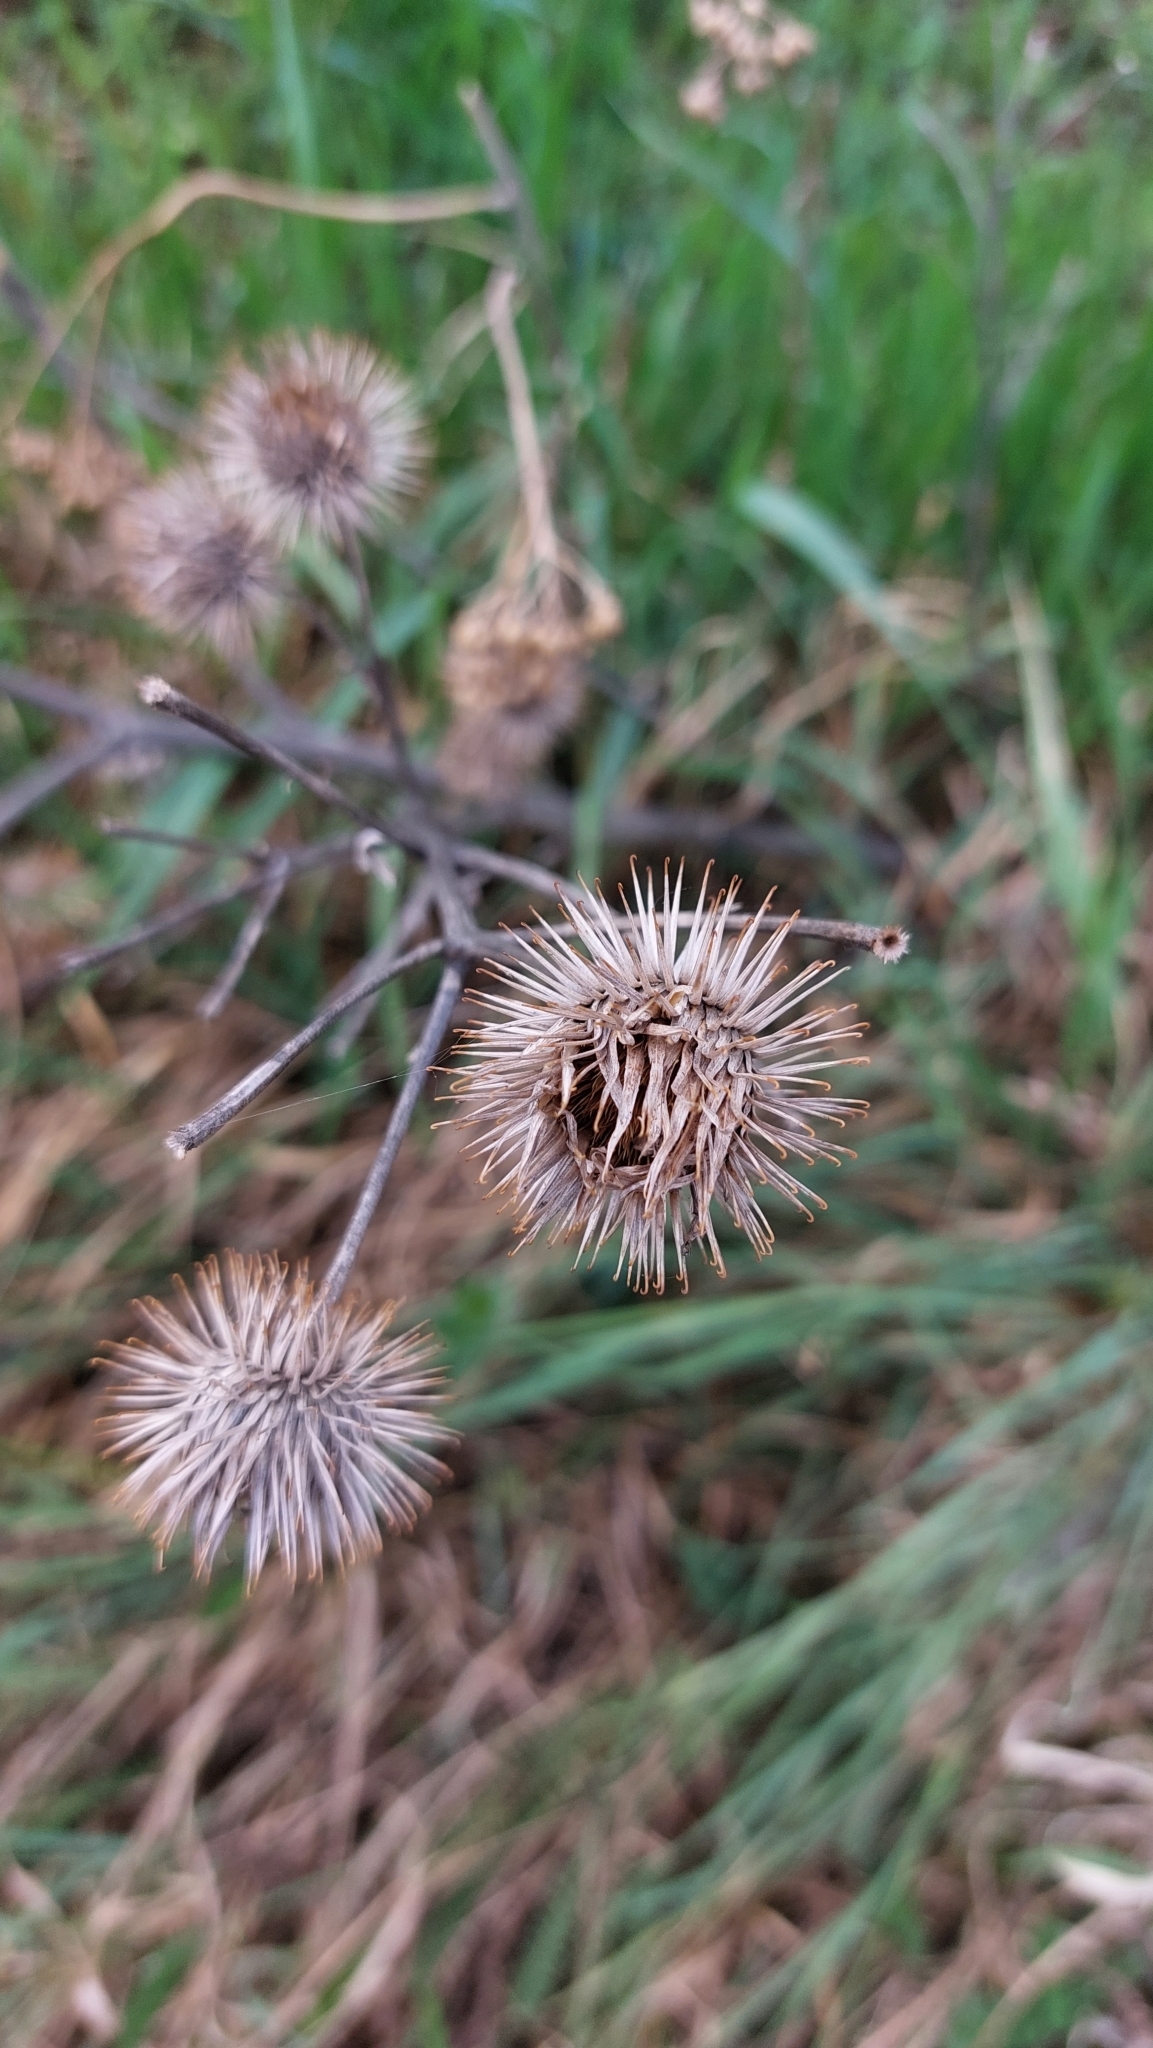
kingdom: Plantae
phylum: Tracheophyta
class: Magnoliopsida
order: Asterales
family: Asteraceae
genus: Arctium
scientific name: Arctium lappa
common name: Greater burdock
